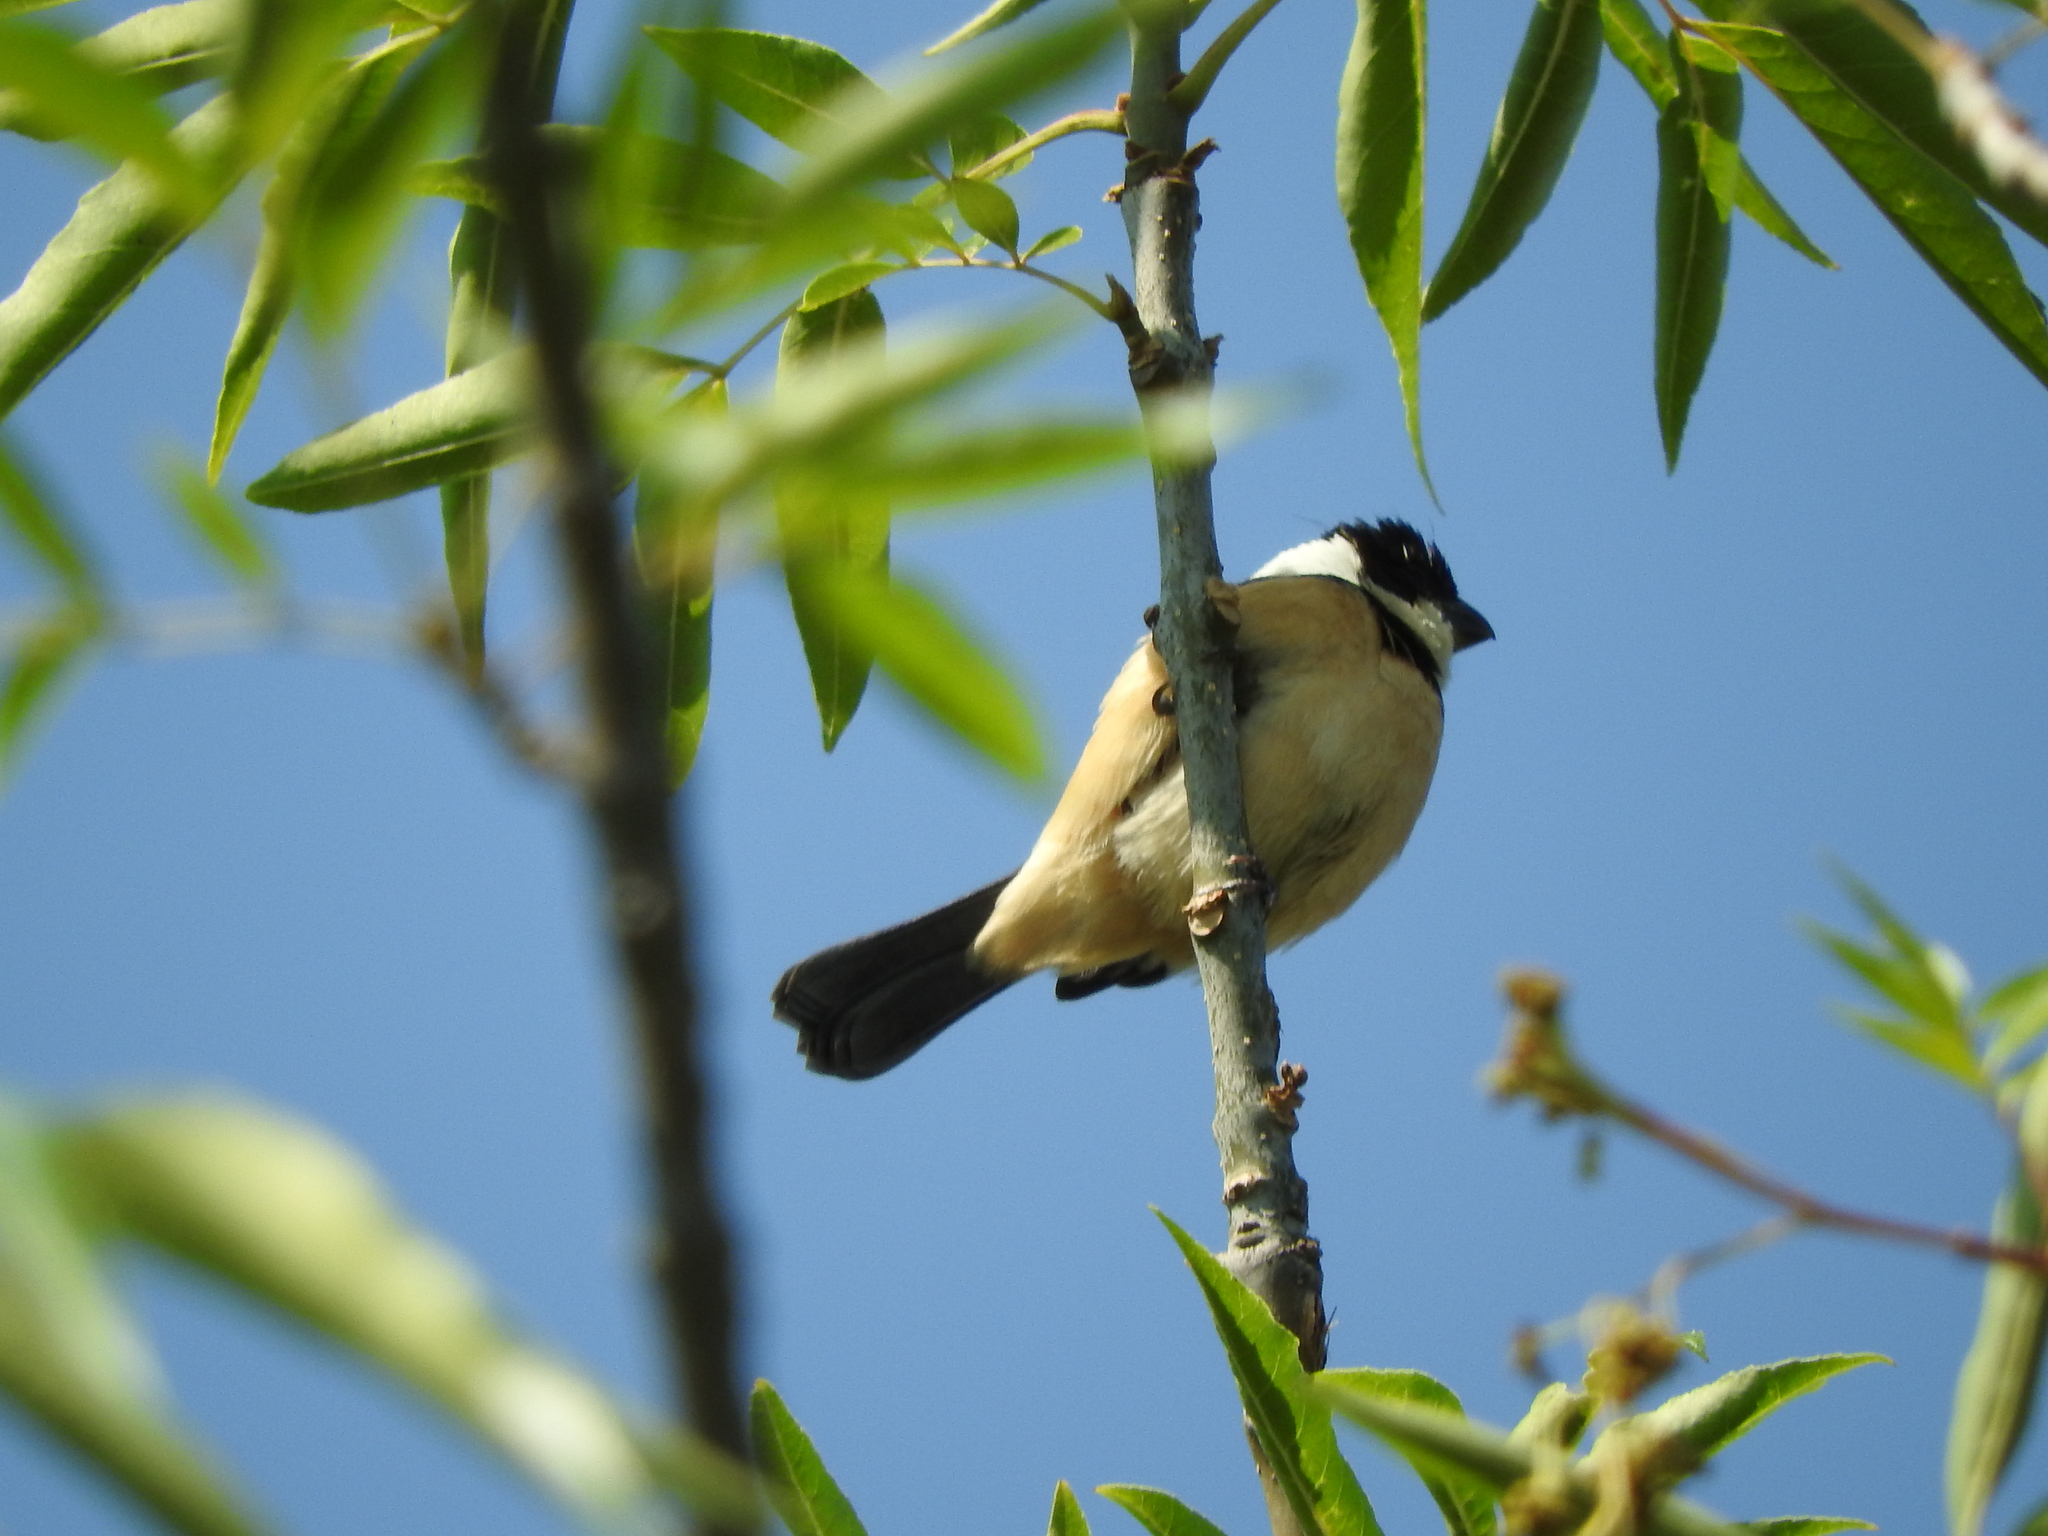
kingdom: Animalia
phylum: Chordata
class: Aves
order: Passeriformes
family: Thraupidae
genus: Sporophila
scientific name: Sporophila torqueola
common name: White-collared seedeater
